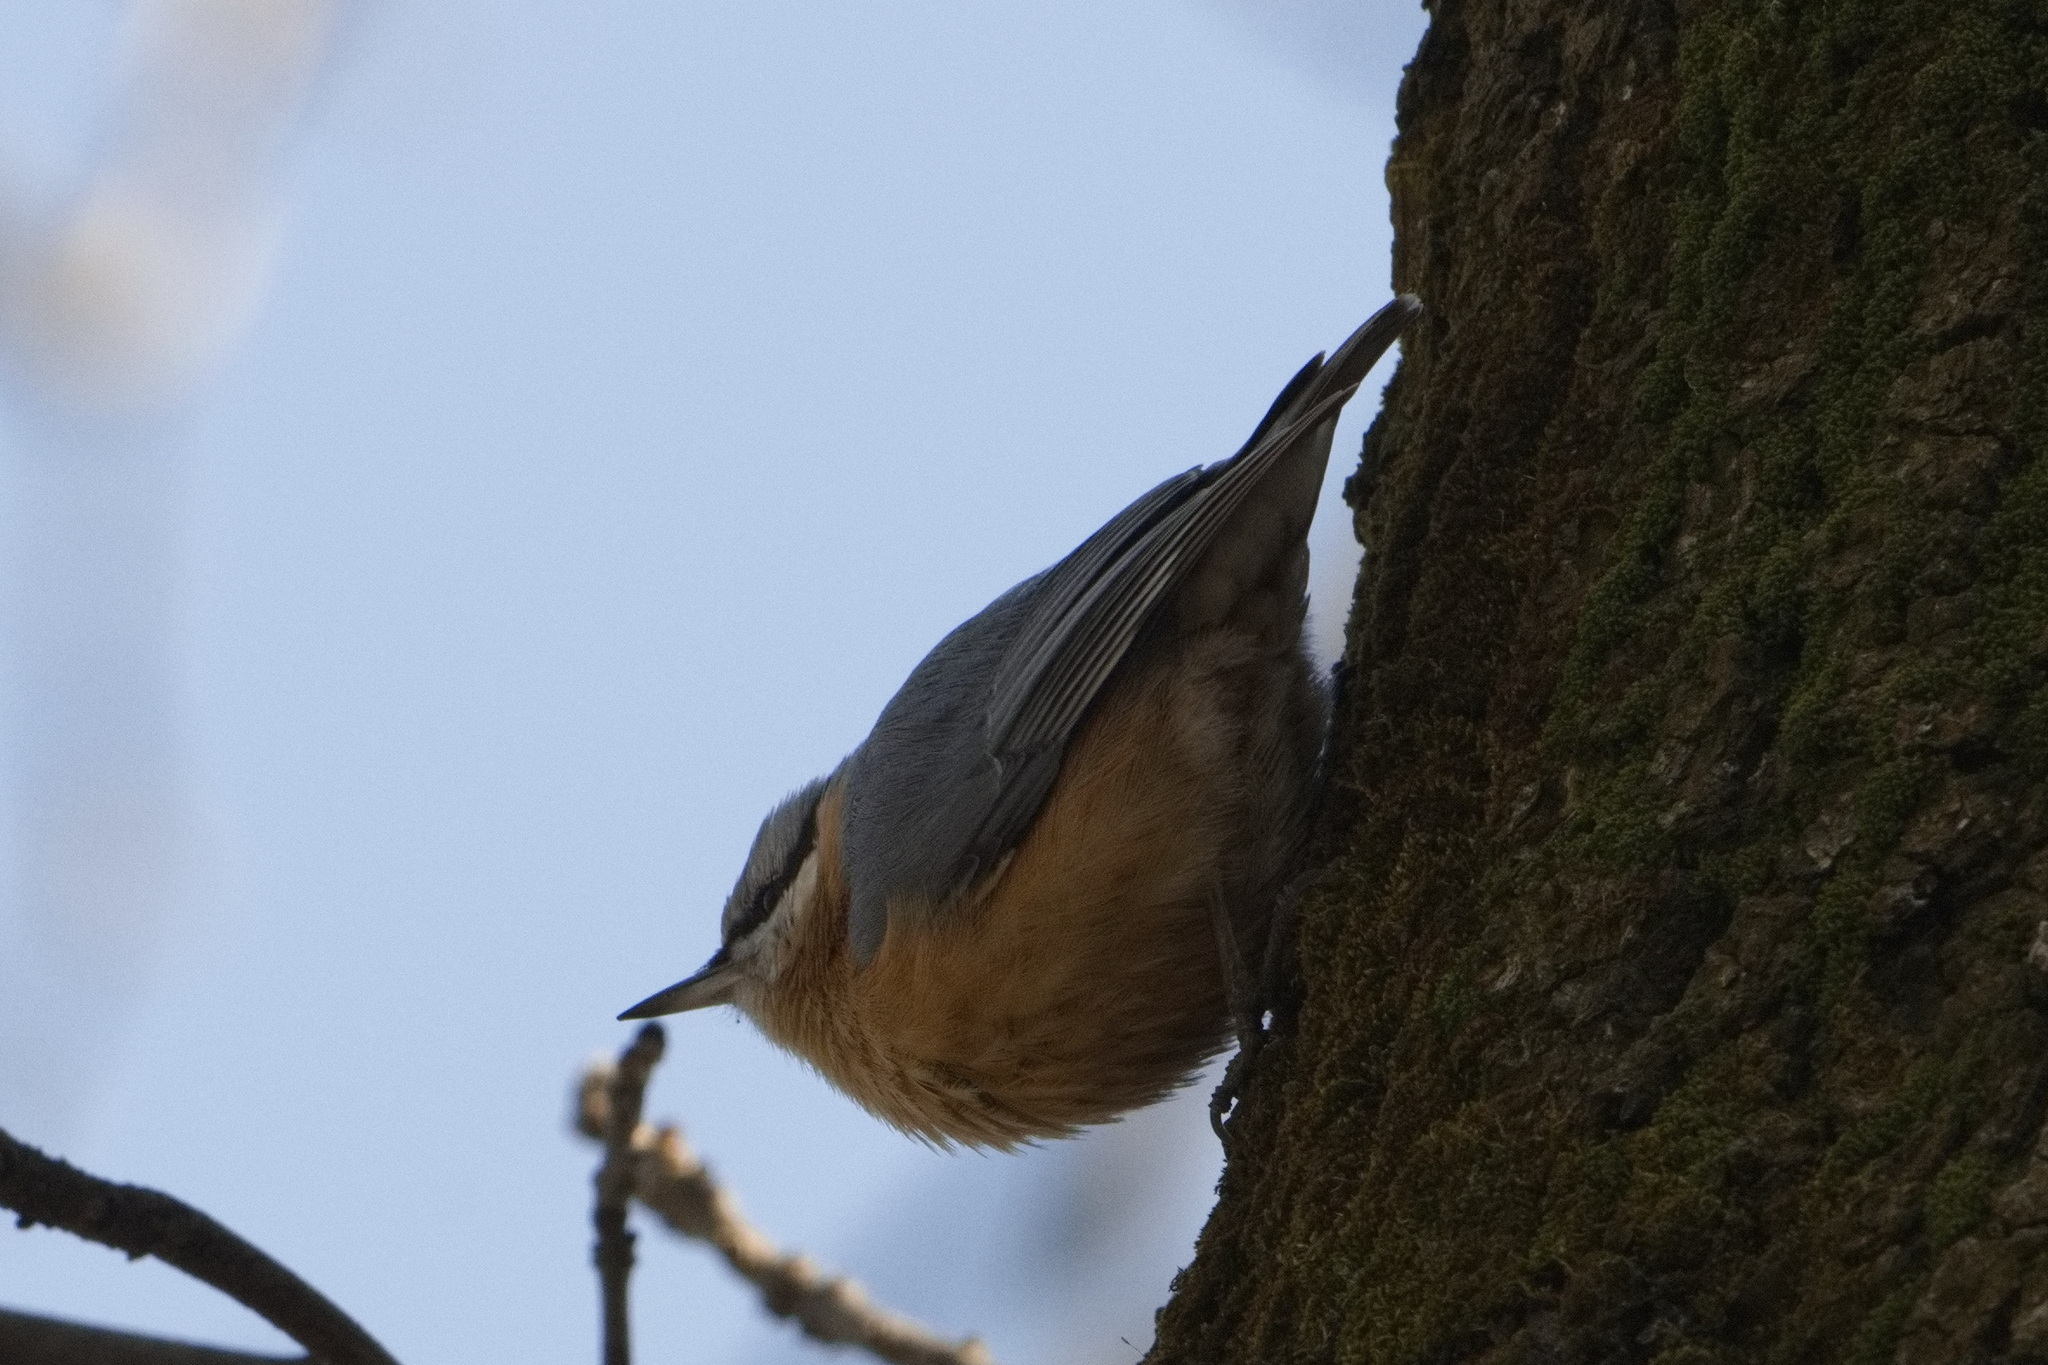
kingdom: Animalia
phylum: Chordata
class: Aves
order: Passeriformes
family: Sittidae
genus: Sitta
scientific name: Sitta europaea
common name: Eurasian nuthatch
